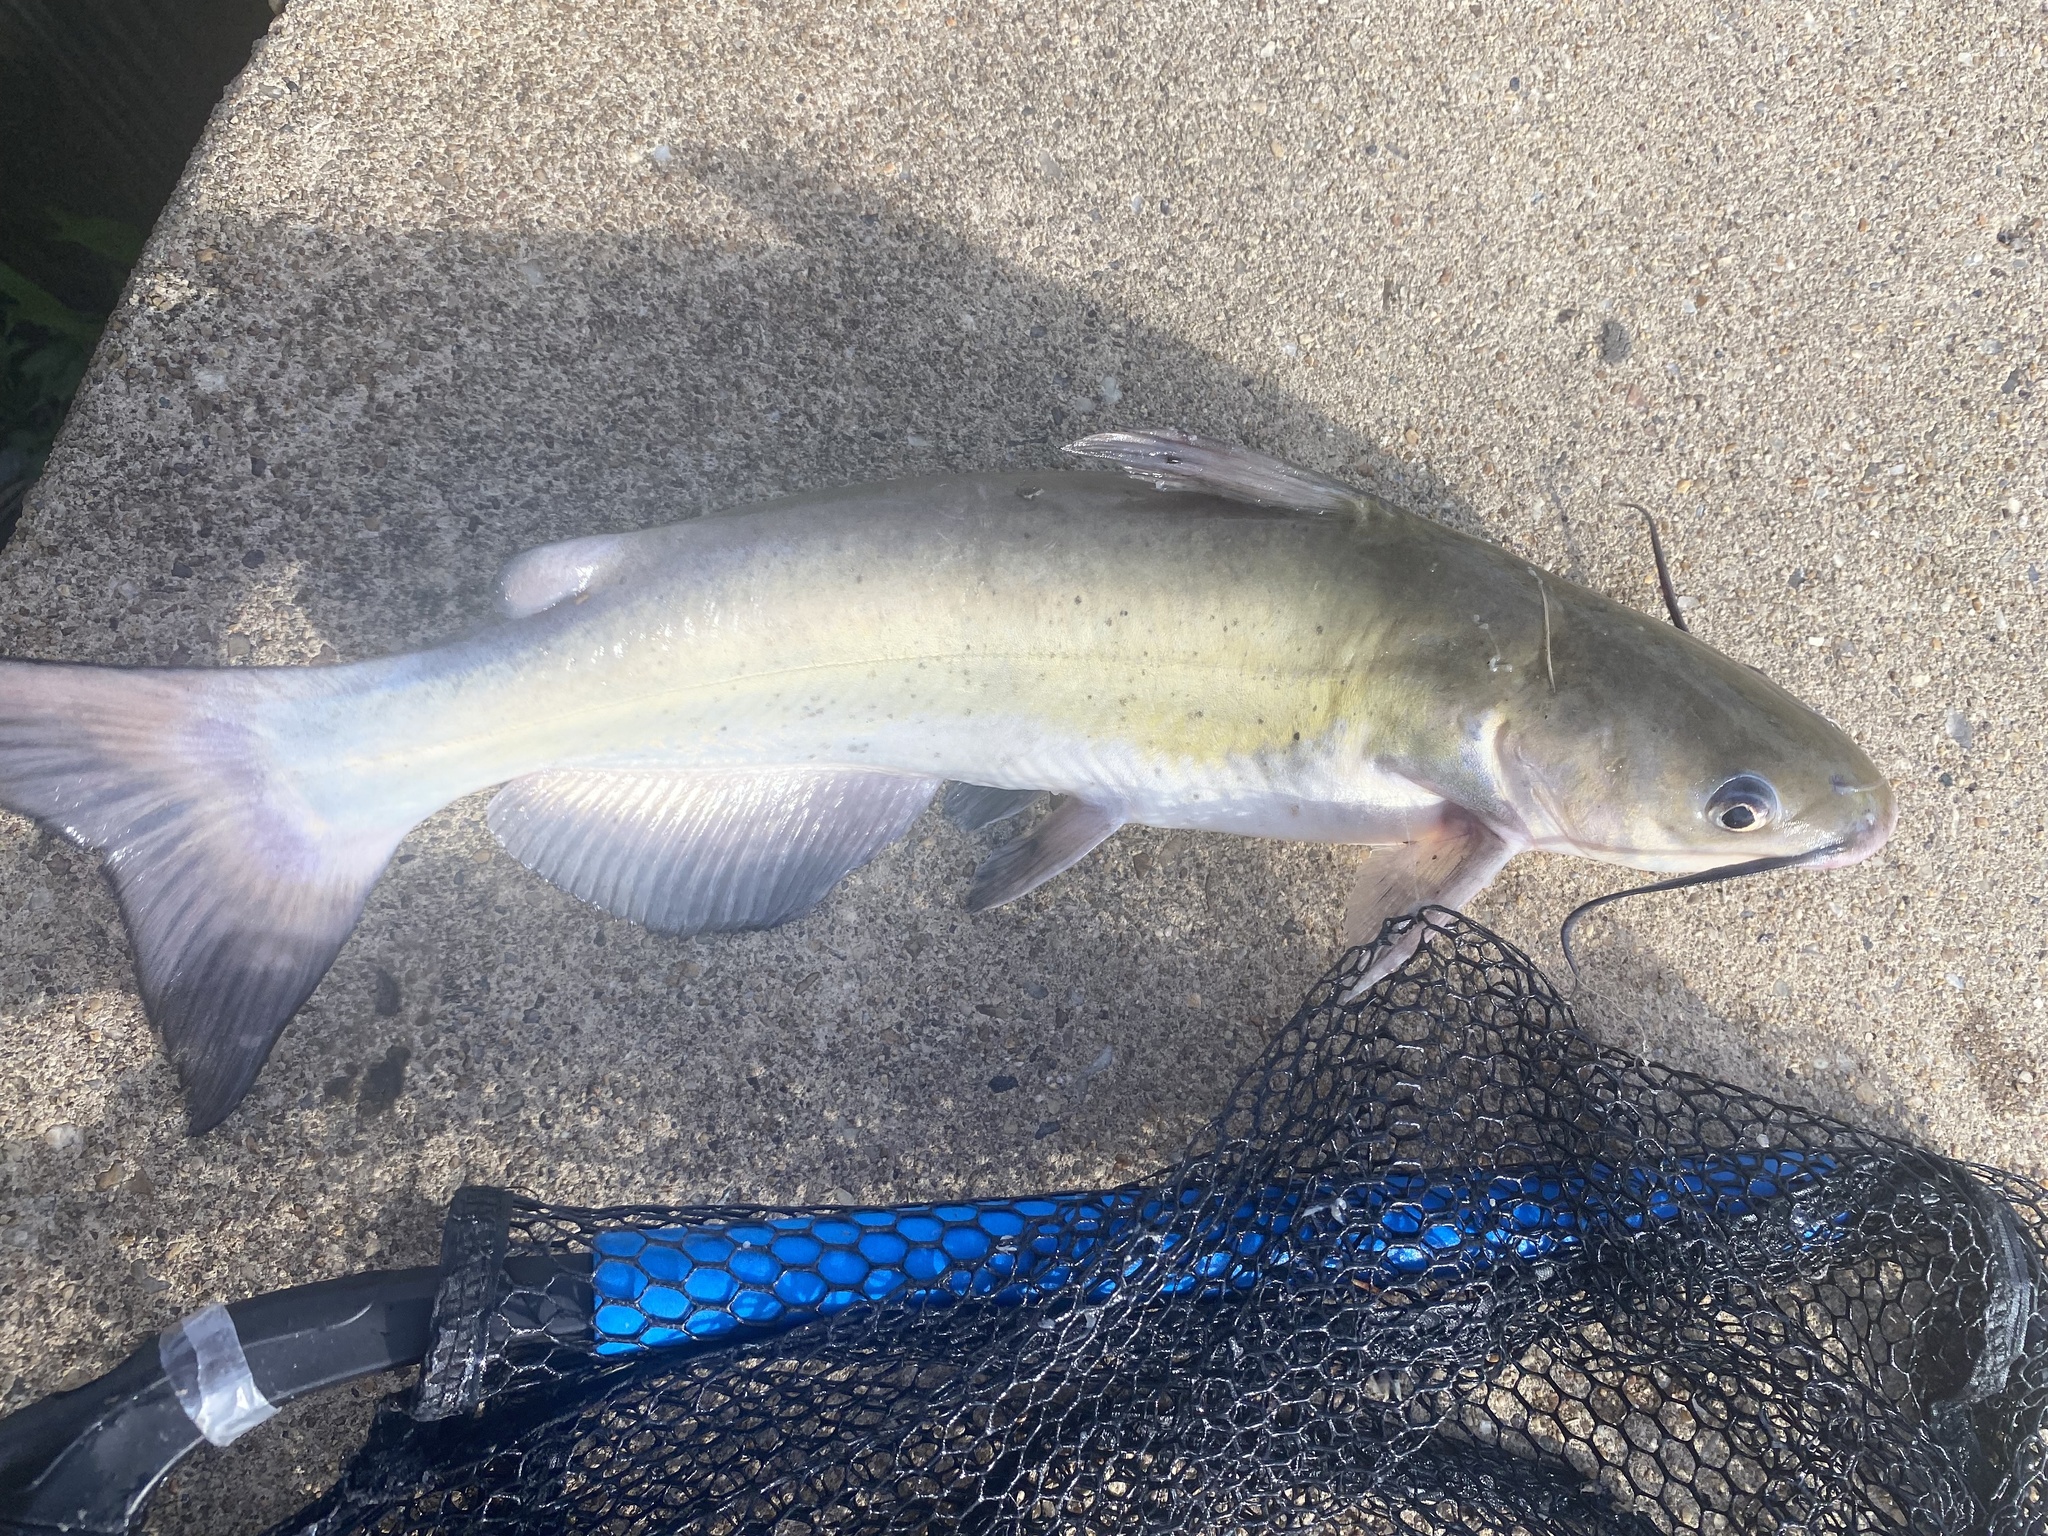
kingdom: Animalia
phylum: Chordata
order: Siluriformes
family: Ictaluridae
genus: Ictalurus
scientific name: Ictalurus punctatus
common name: Channel catfish
